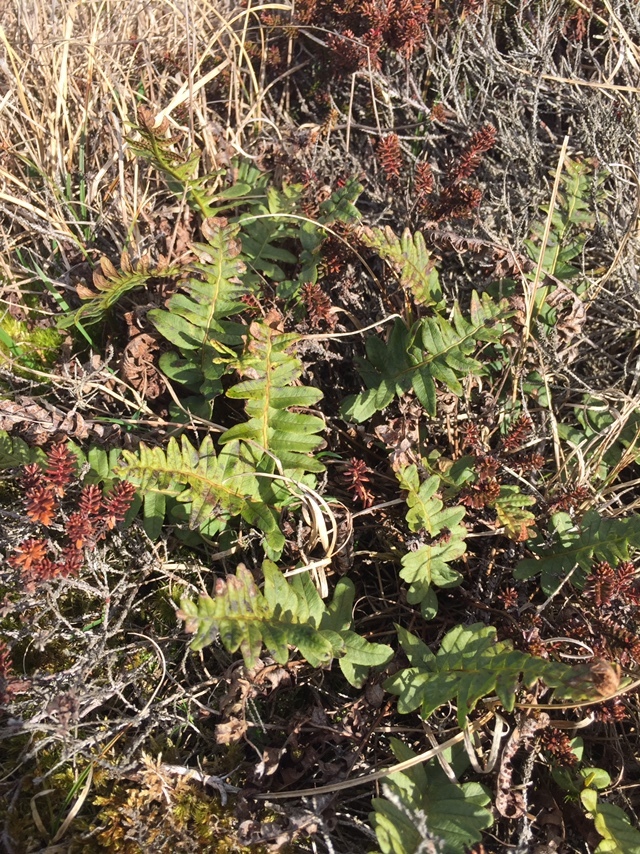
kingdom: Plantae
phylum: Tracheophyta
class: Polypodiopsida
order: Polypodiales
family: Polypodiaceae
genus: Polypodium
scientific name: Polypodium vulgare
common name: Common polypody
